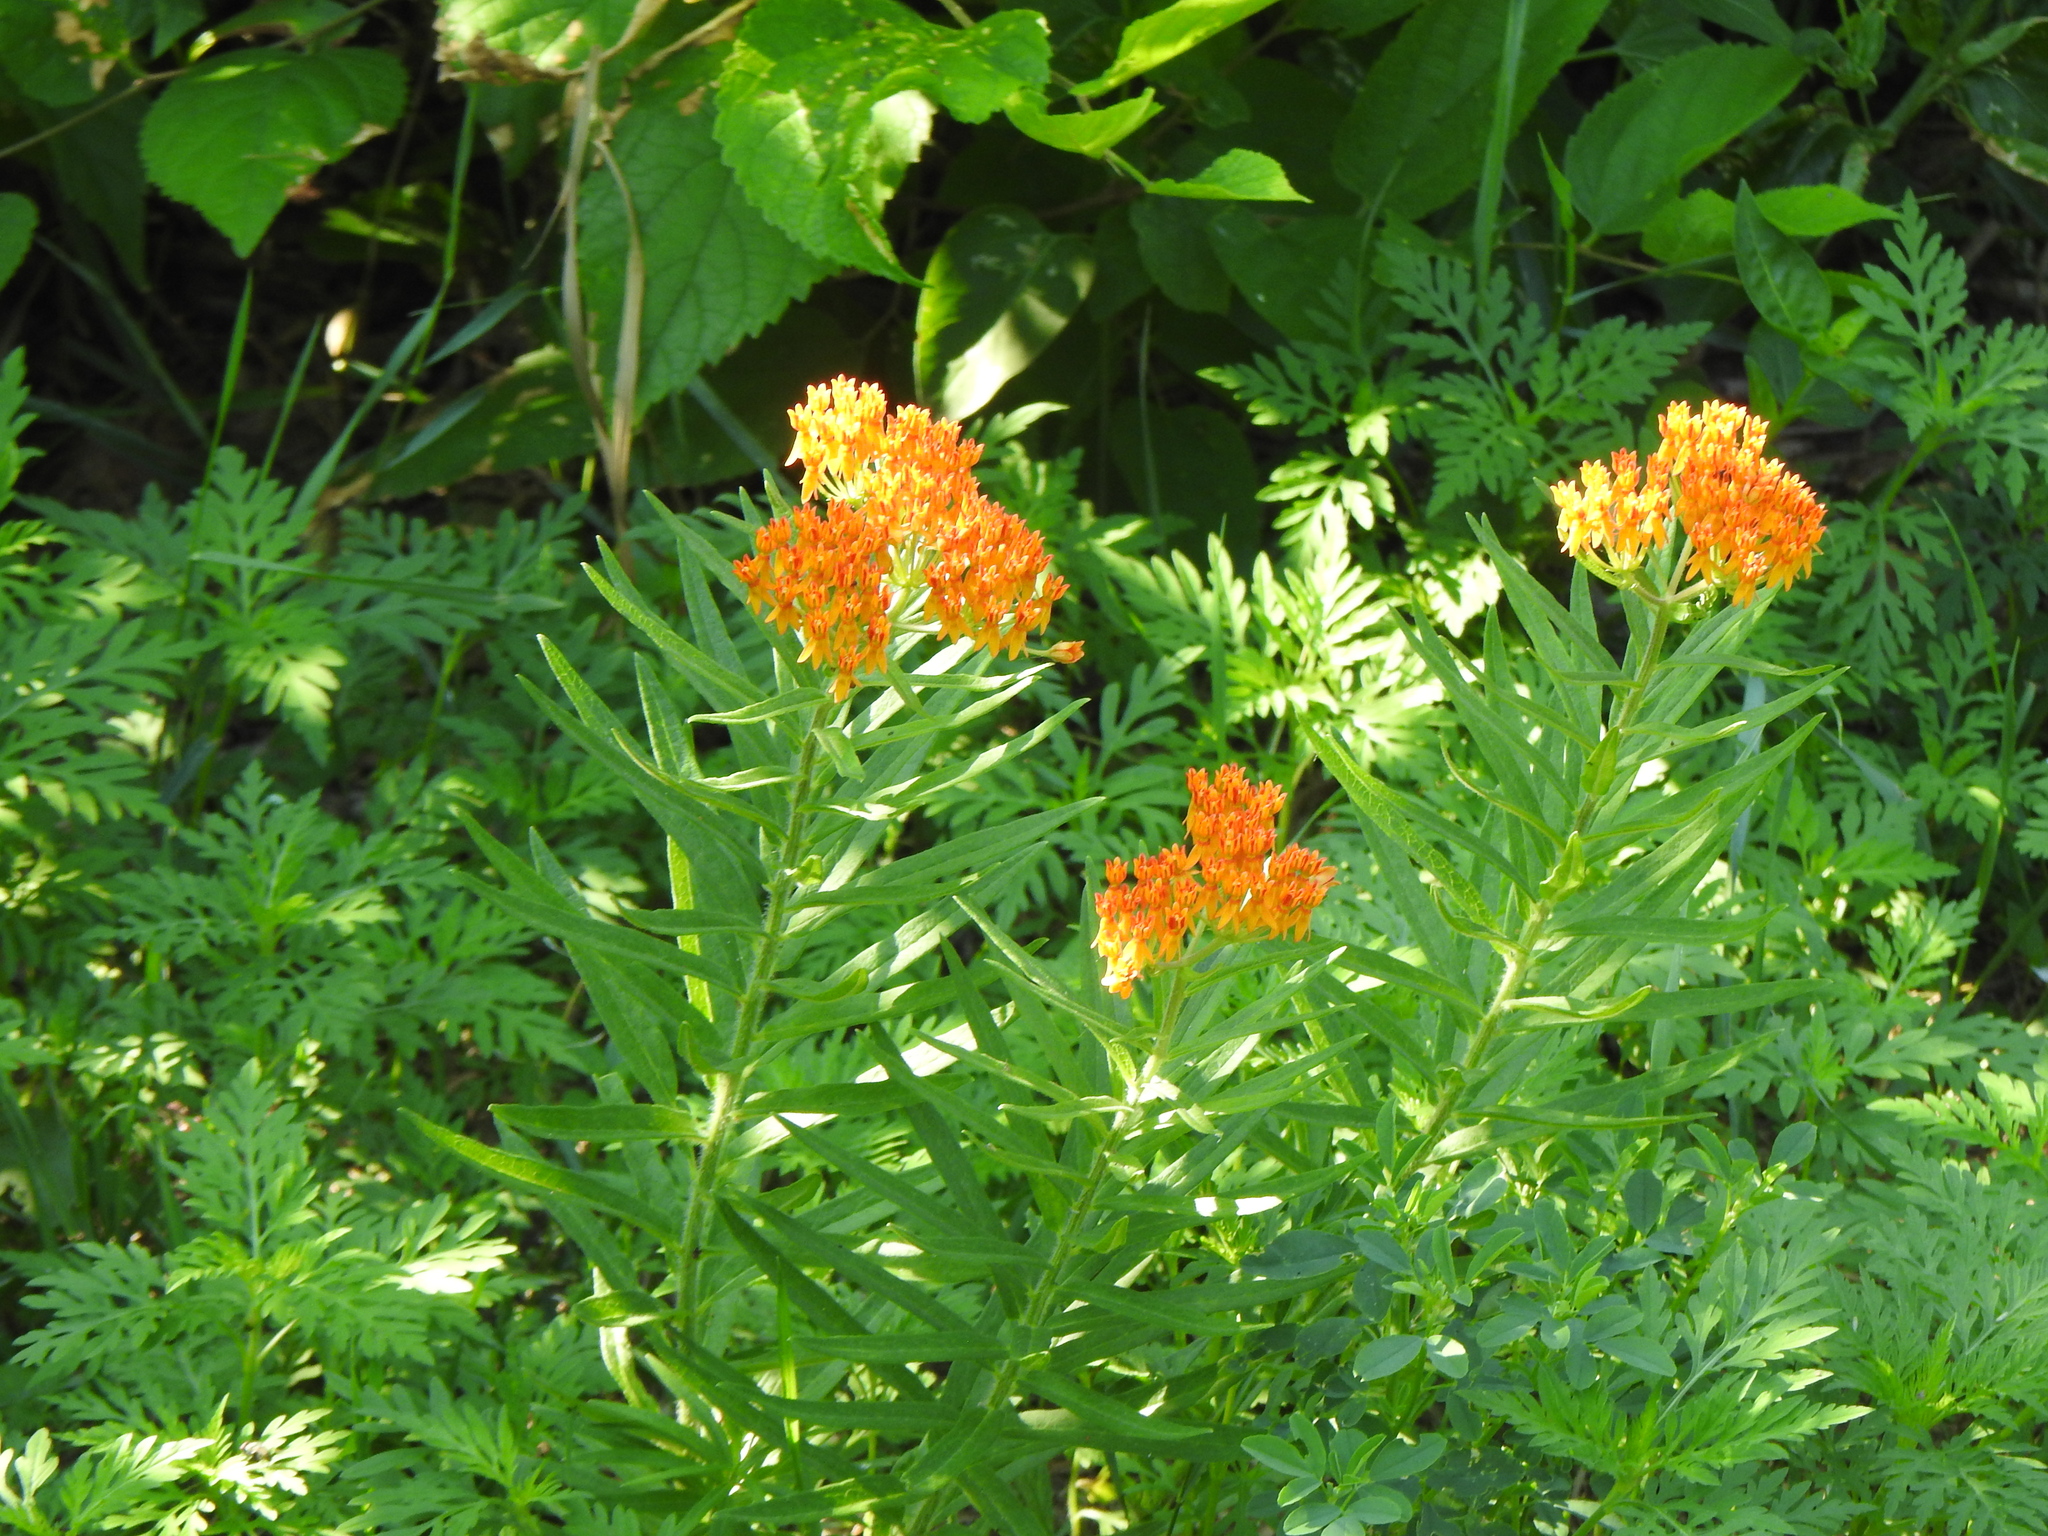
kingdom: Plantae
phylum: Tracheophyta
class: Magnoliopsida
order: Gentianales
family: Apocynaceae
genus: Asclepias
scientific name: Asclepias tuberosa
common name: Butterfly milkweed
